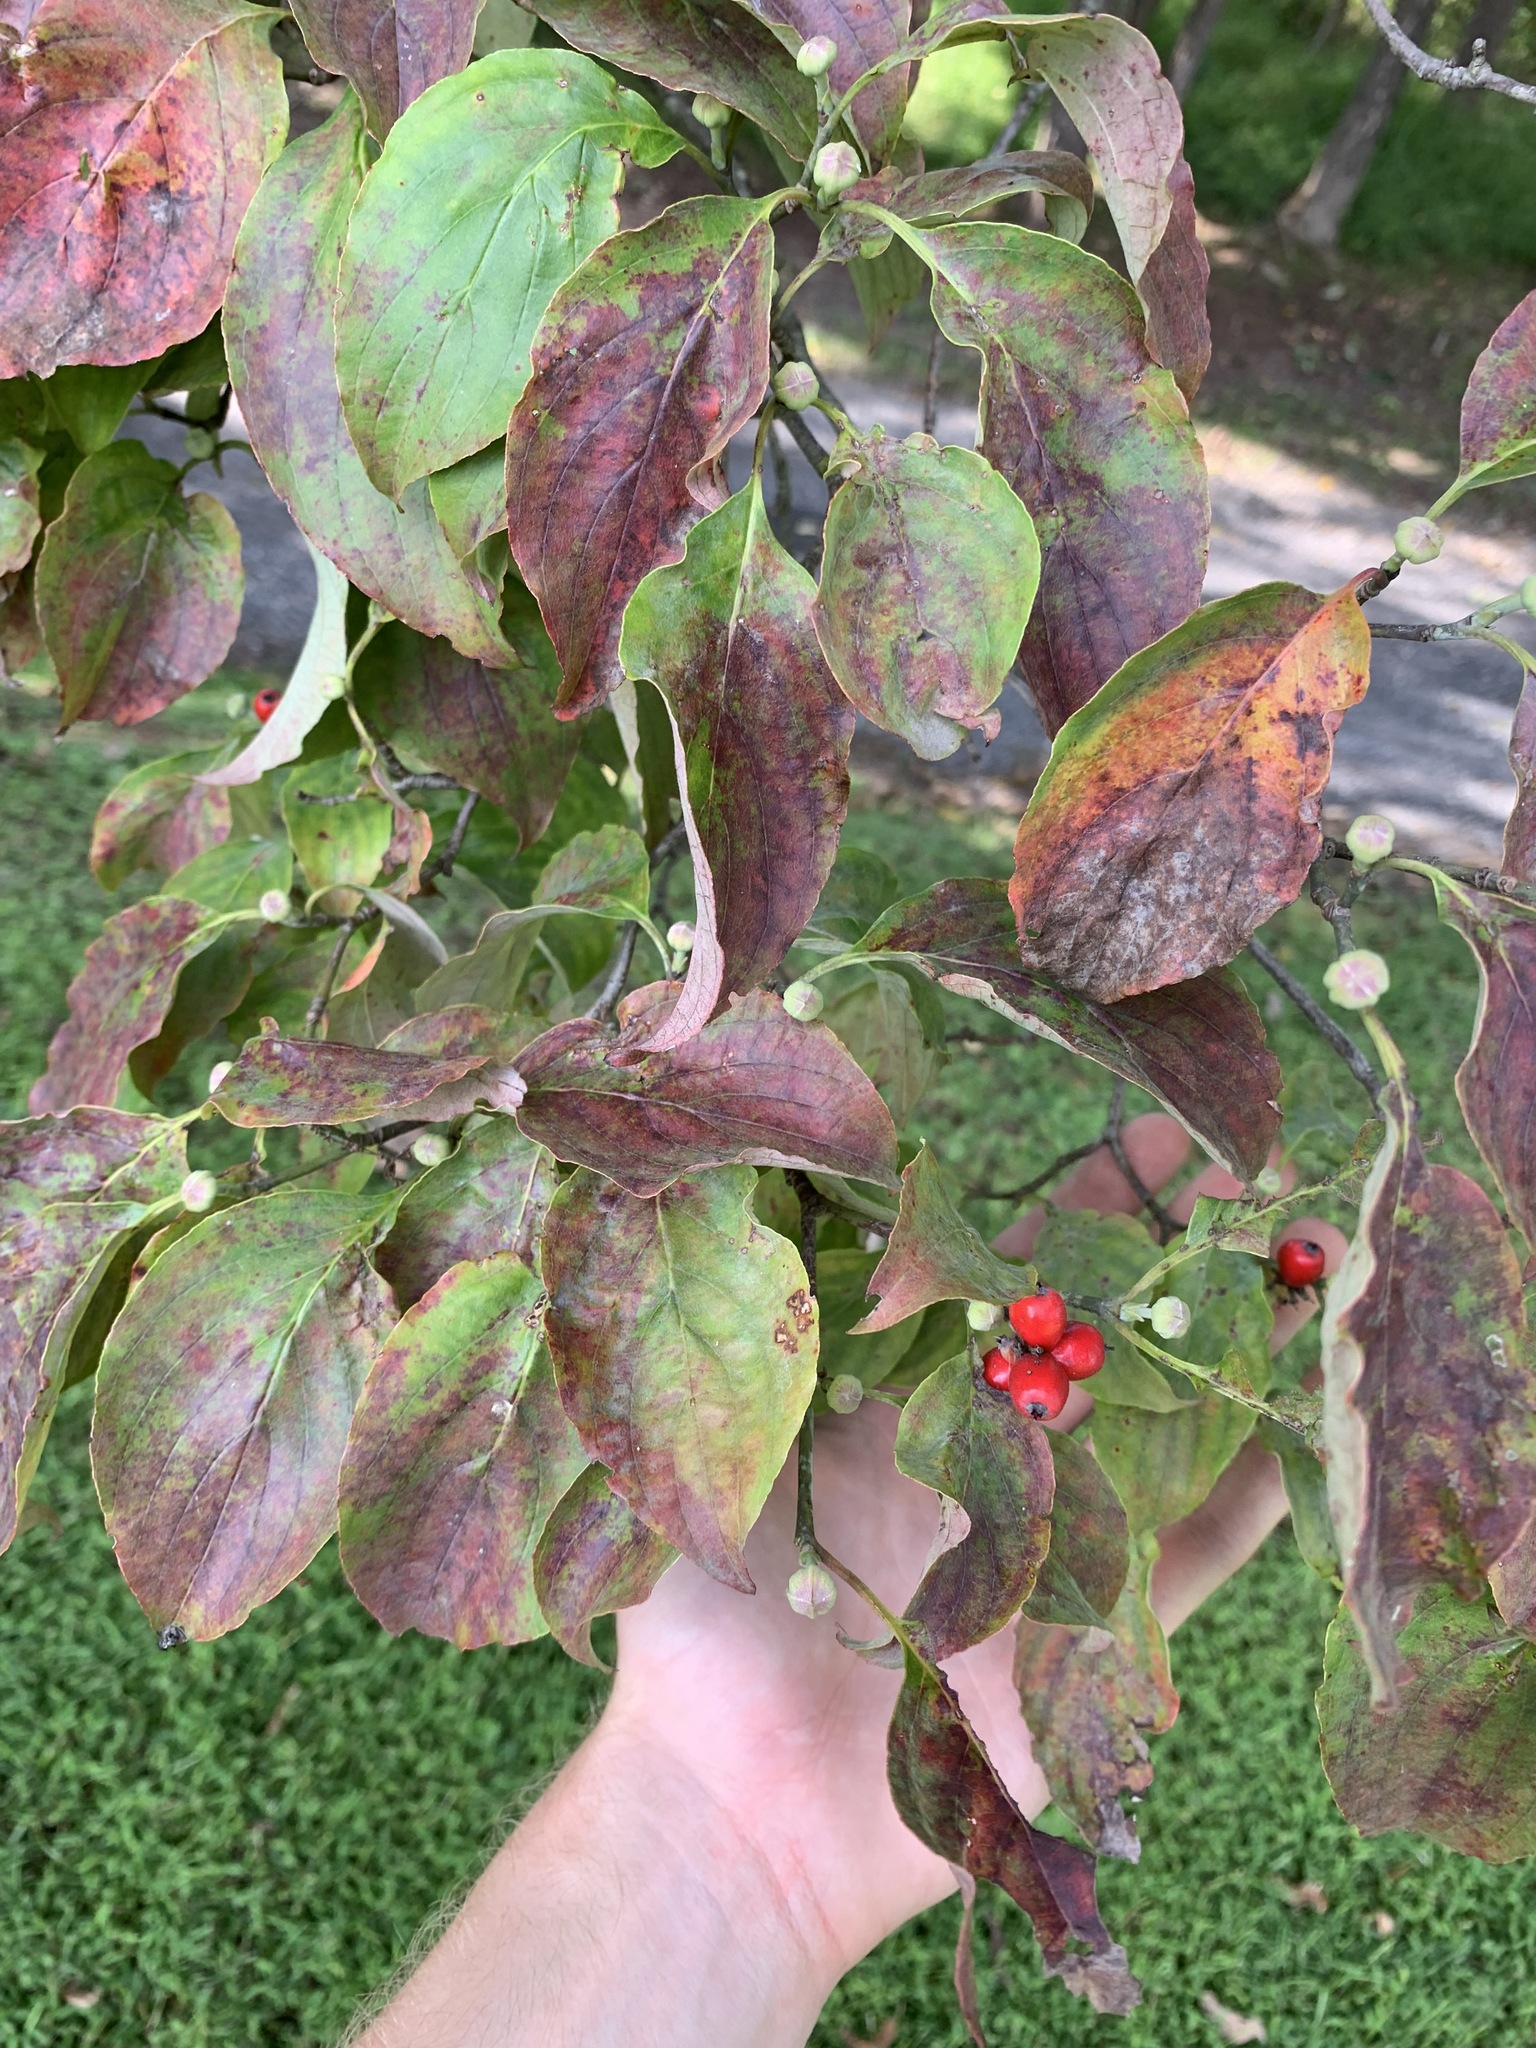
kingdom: Plantae
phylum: Tracheophyta
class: Magnoliopsida
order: Cornales
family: Cornaceae
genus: Cornus
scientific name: Cornus florida
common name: Flowering dogwood
